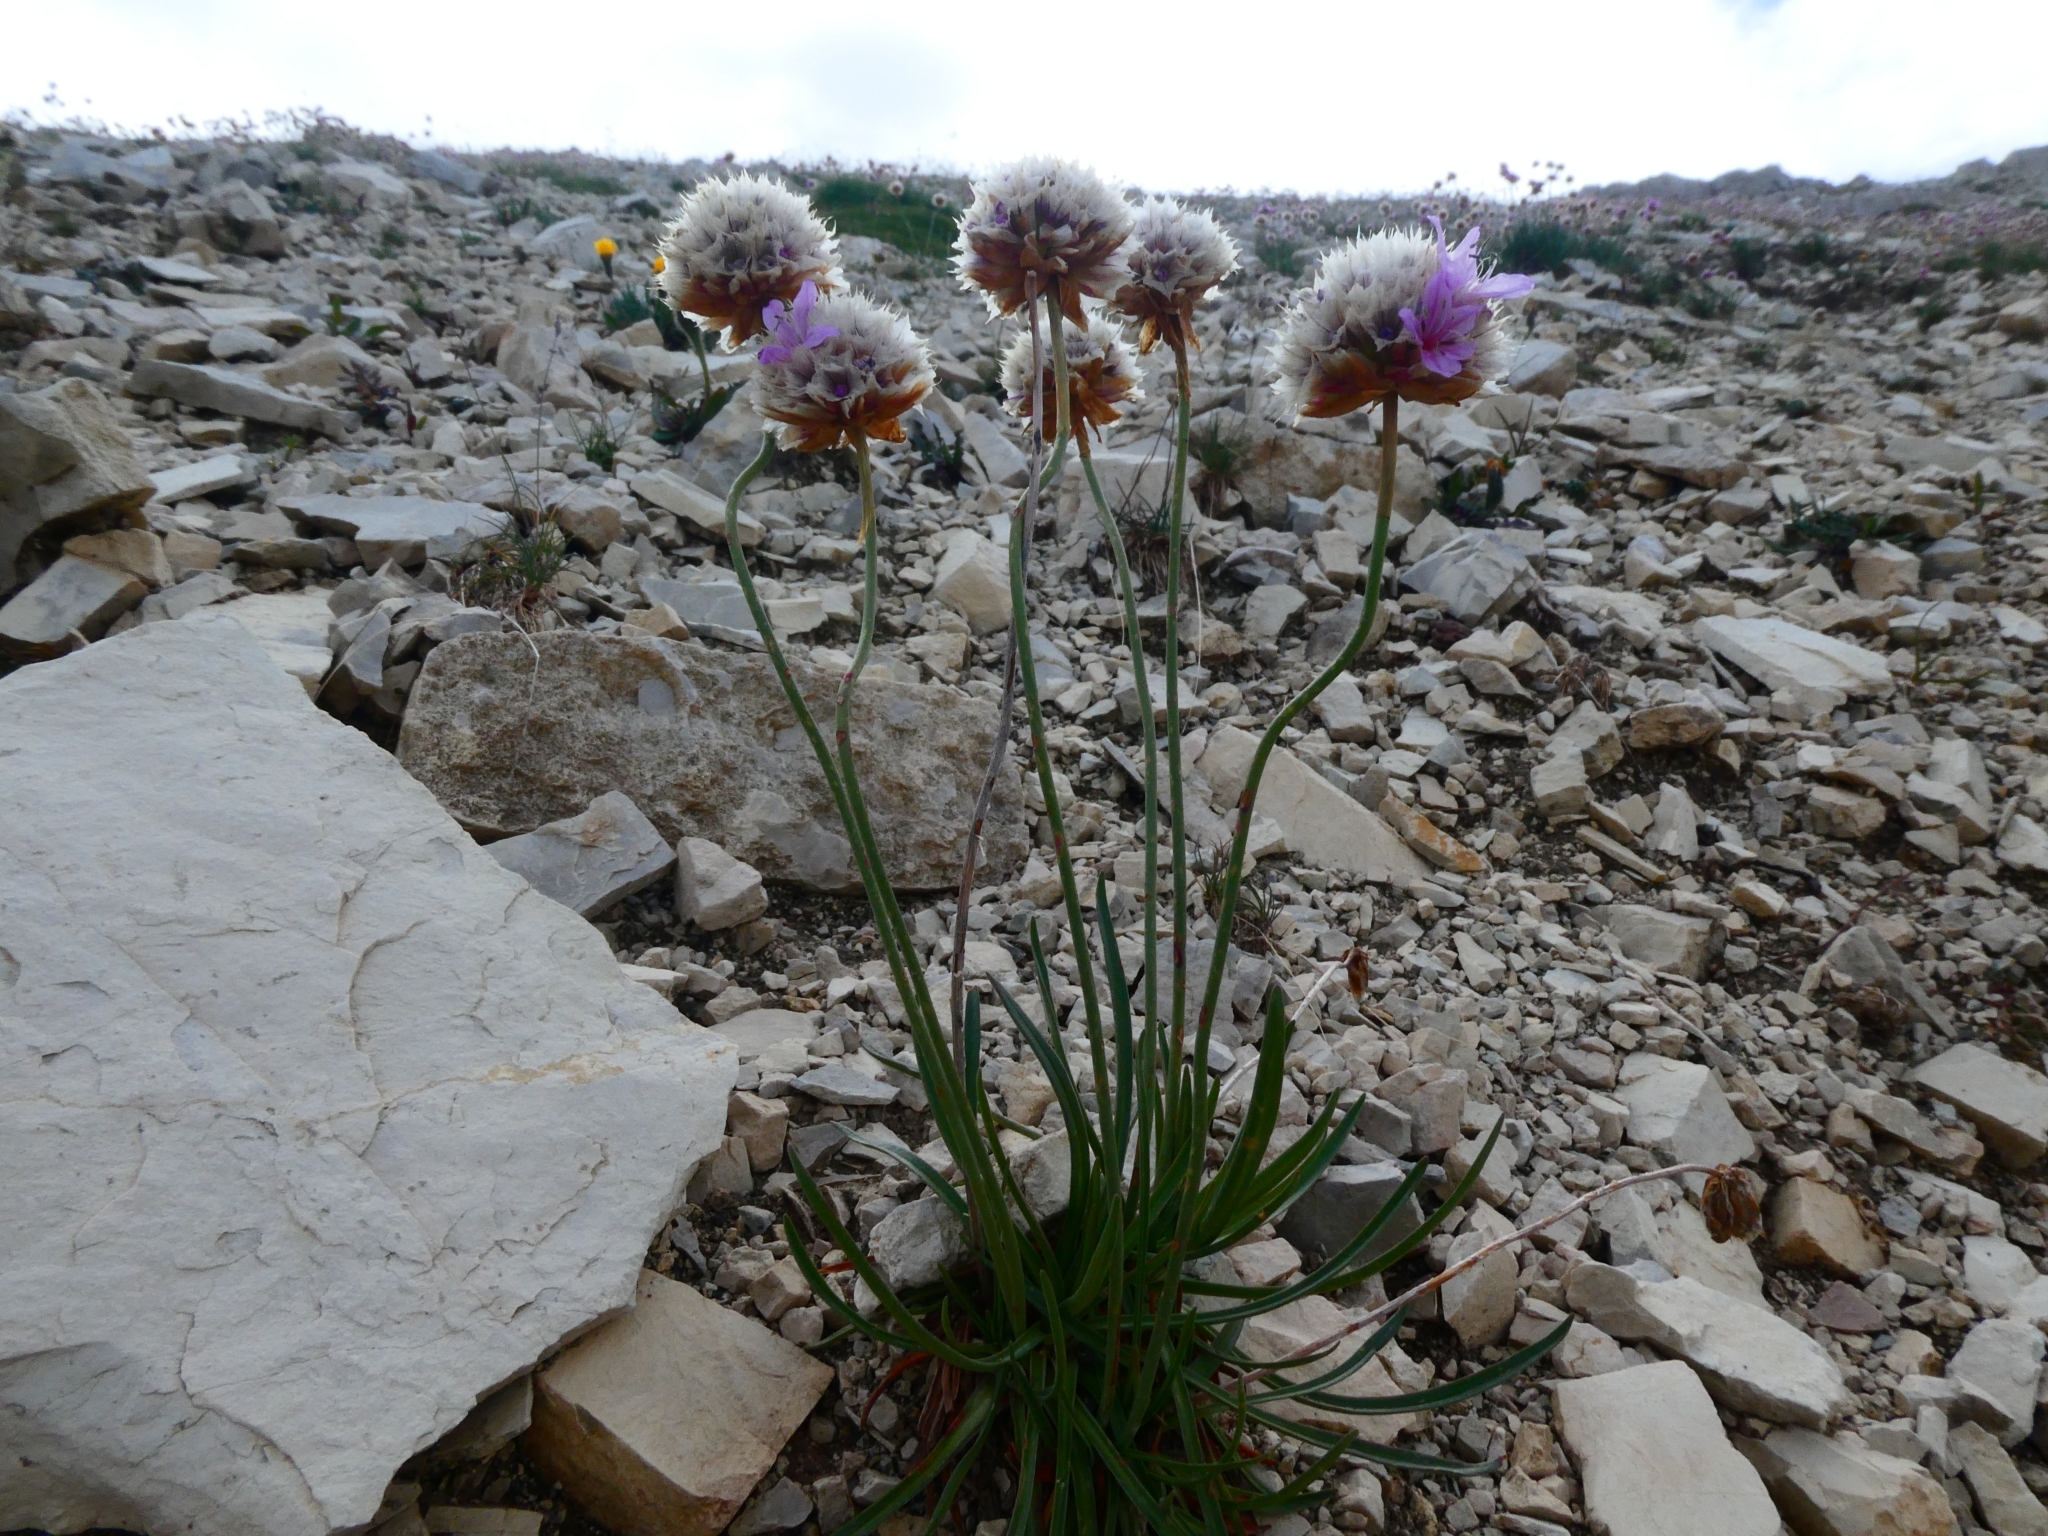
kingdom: Plantae
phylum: Tracheophyta
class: Magnoliopsida
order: Caryophyllales
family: Plumbaginaceae
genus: Armeria
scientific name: Armeria alpina
